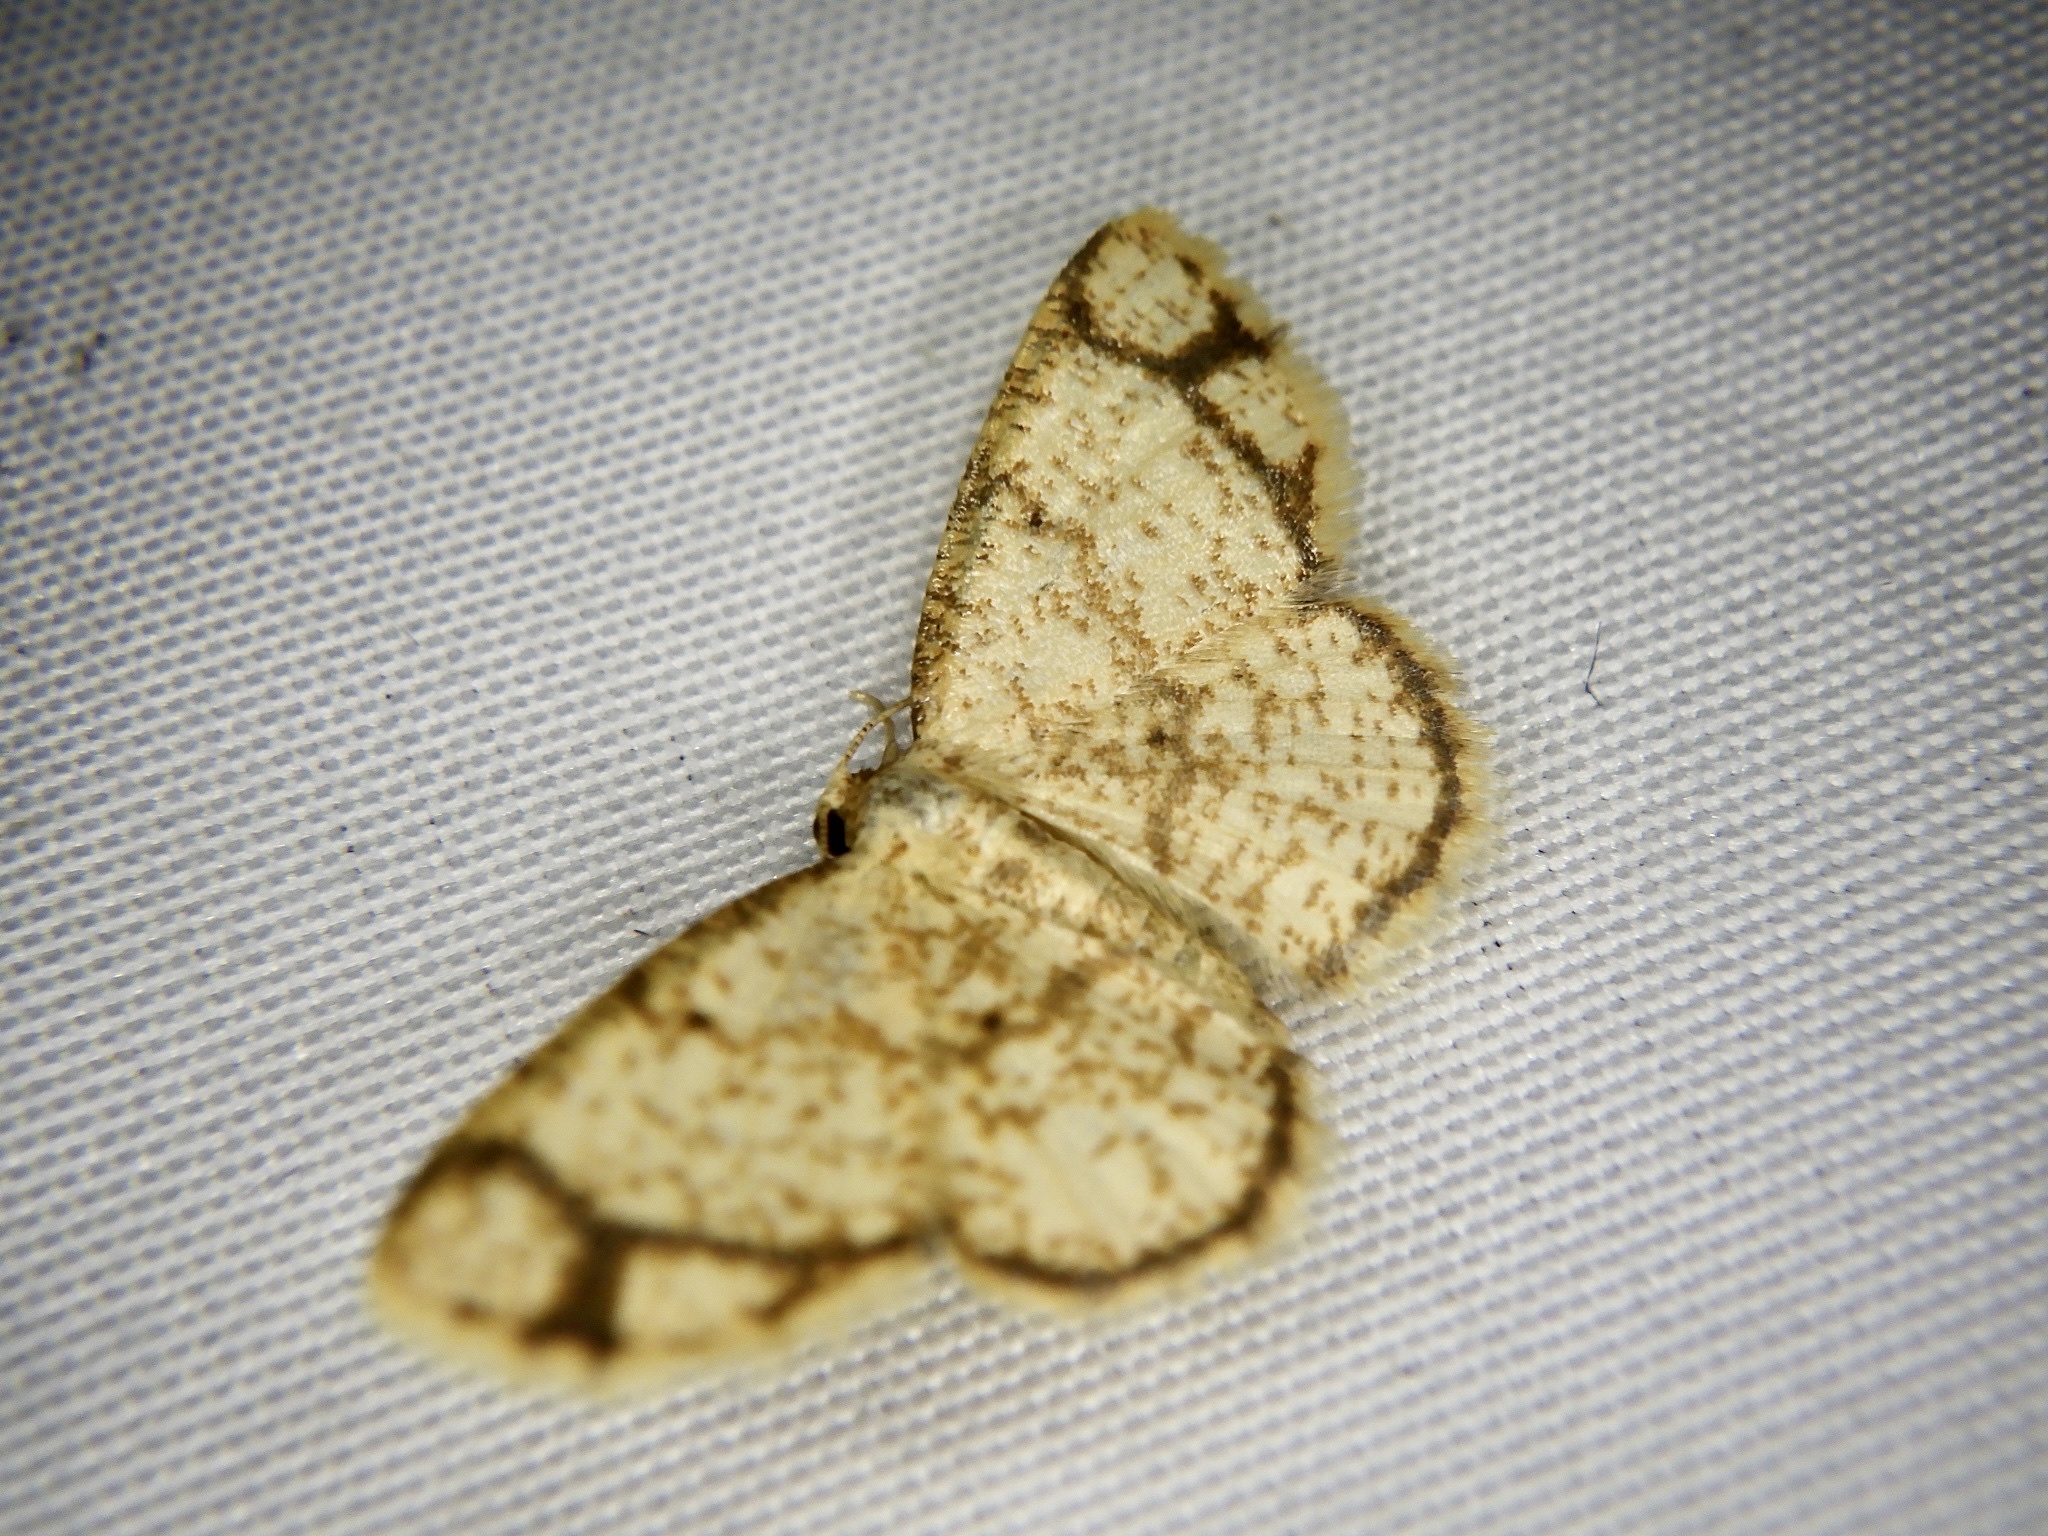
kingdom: Animalia
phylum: Arthropoda
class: Insecta
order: Lepidoptera
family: Geometridae
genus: Heterostegane
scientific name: Heterostegane hyriaria
